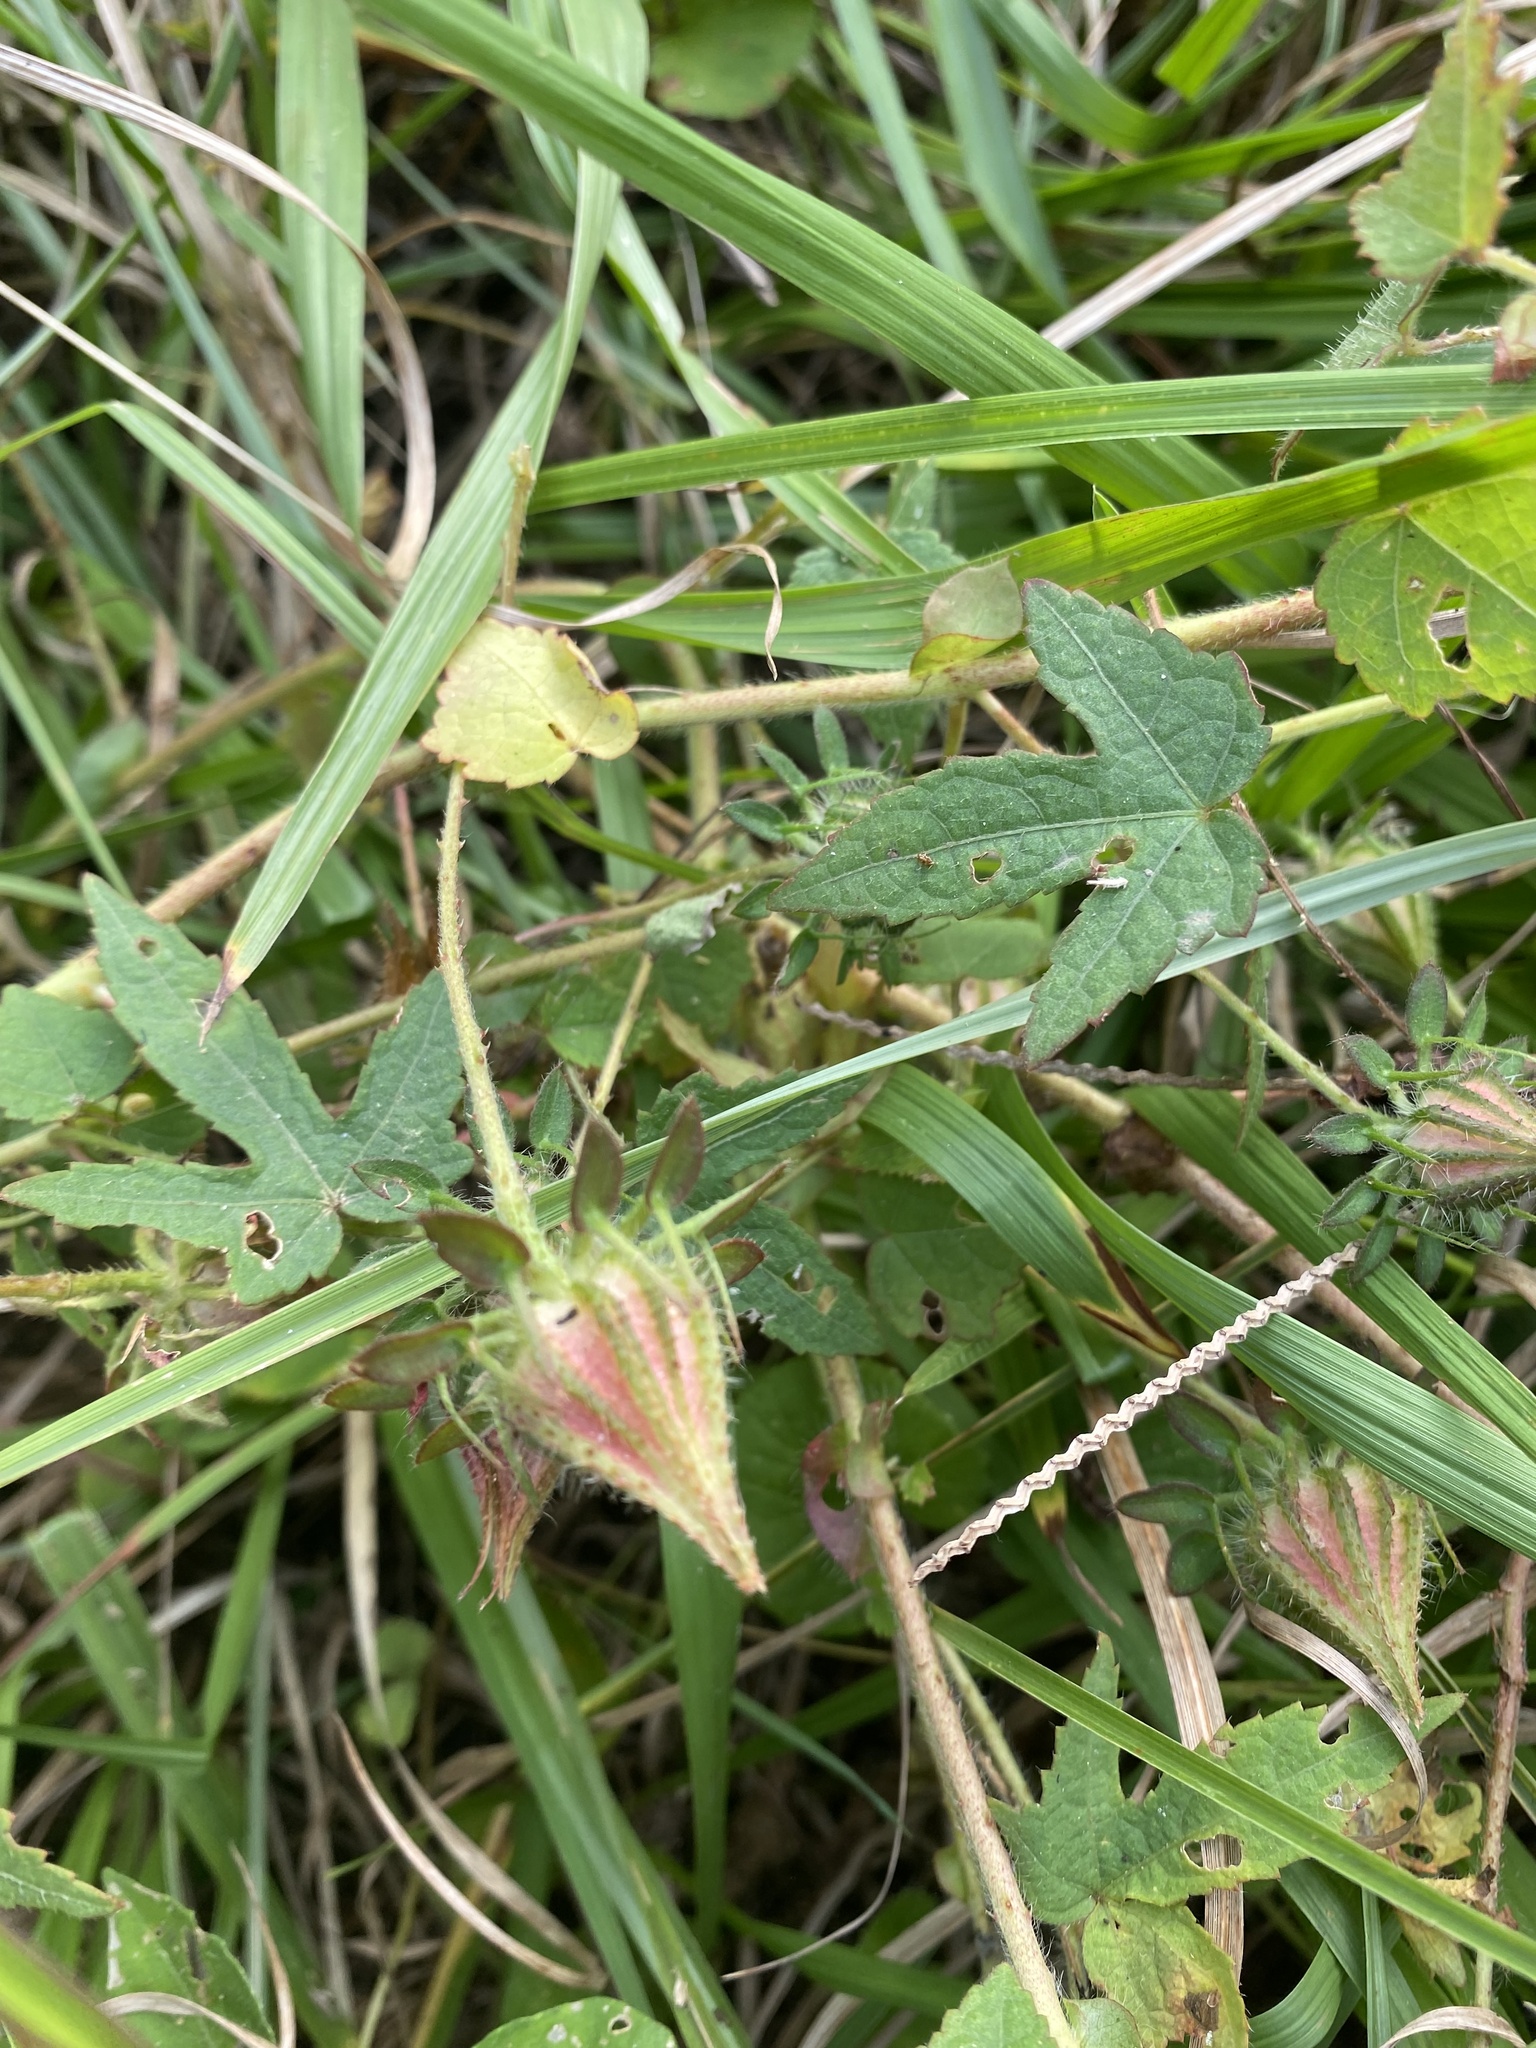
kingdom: Plantae
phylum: Tracheophyta
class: Magnoliopsida
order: Malvales
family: Malvaceae
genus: Hibiscus
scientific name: Hibiscus surattensis
